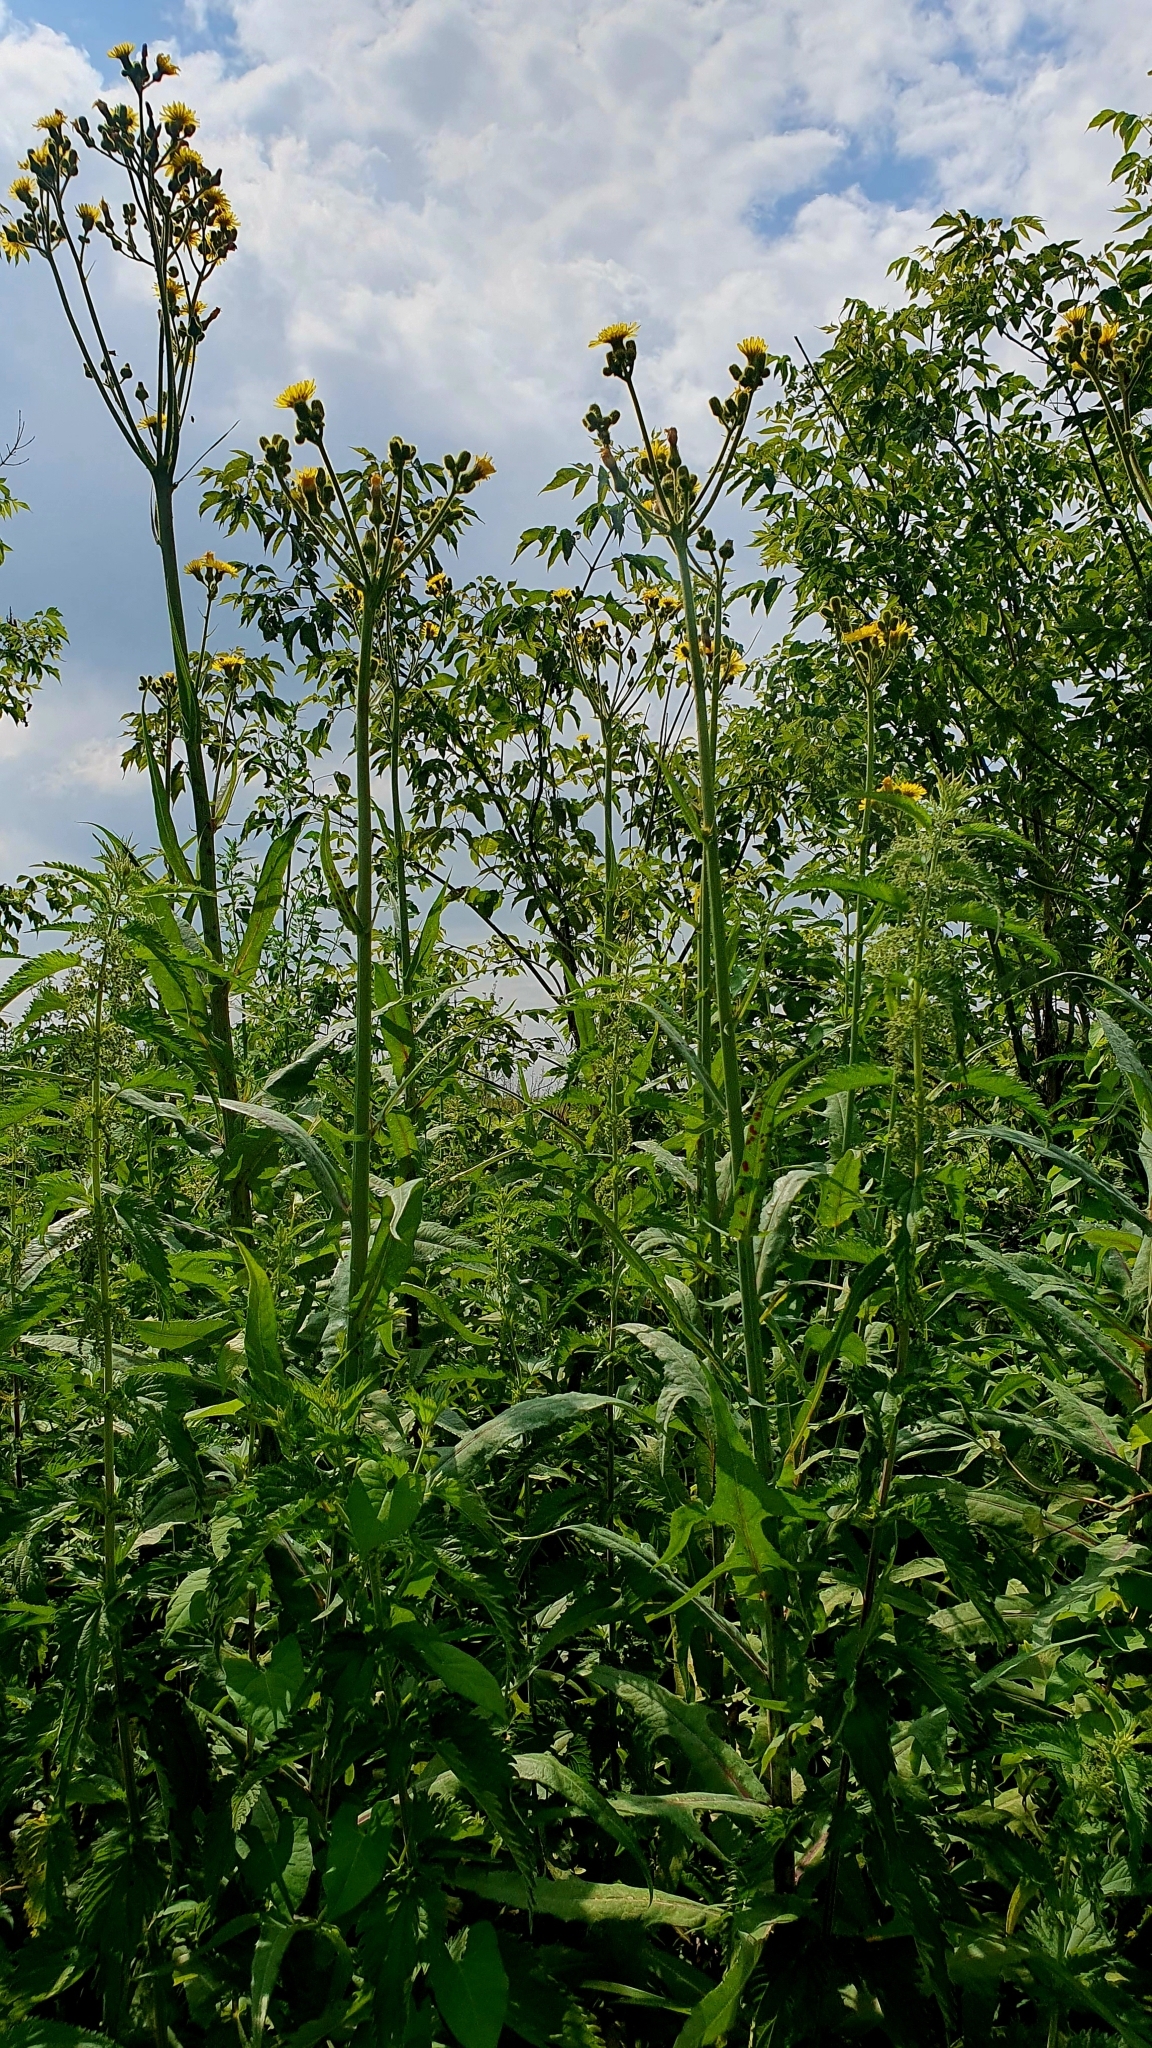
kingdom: Plantae
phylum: Tracheophyta
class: Magnoliopsida
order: Asterales
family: Asteraceae
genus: Sonchus
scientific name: Sonchus palustris
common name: Marsh sow-thistle
